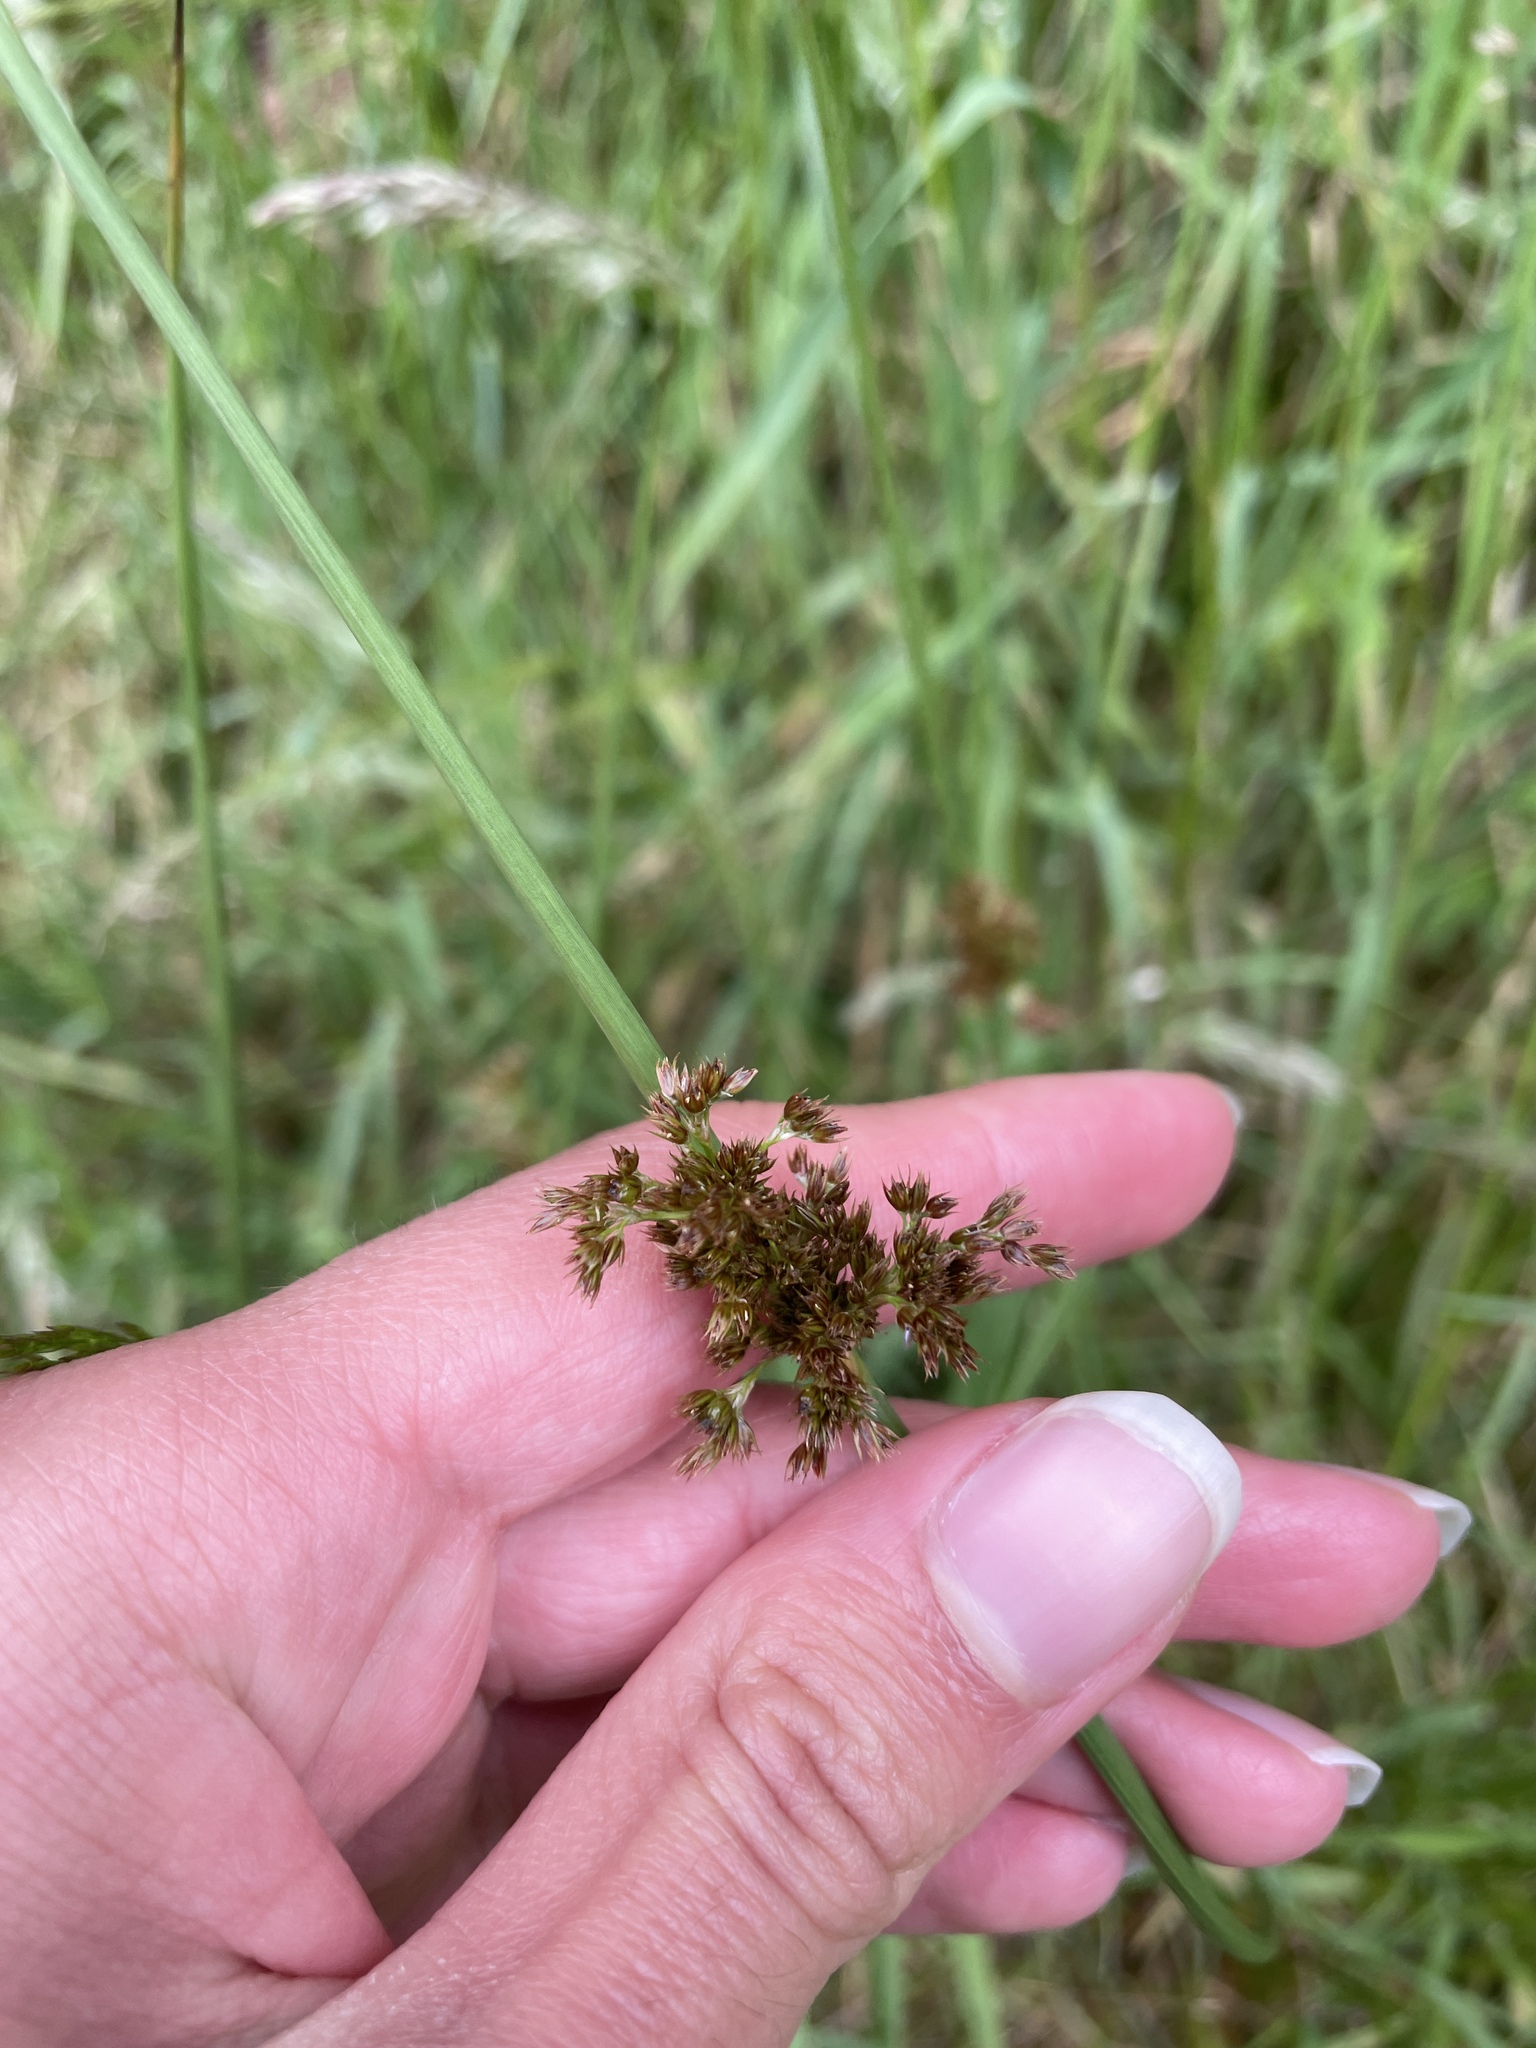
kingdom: Plantae
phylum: Tracheophyta
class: Liliopsida
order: Poales
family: Juncaceae
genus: Juncus
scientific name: Juncus effusus
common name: Soft rush
